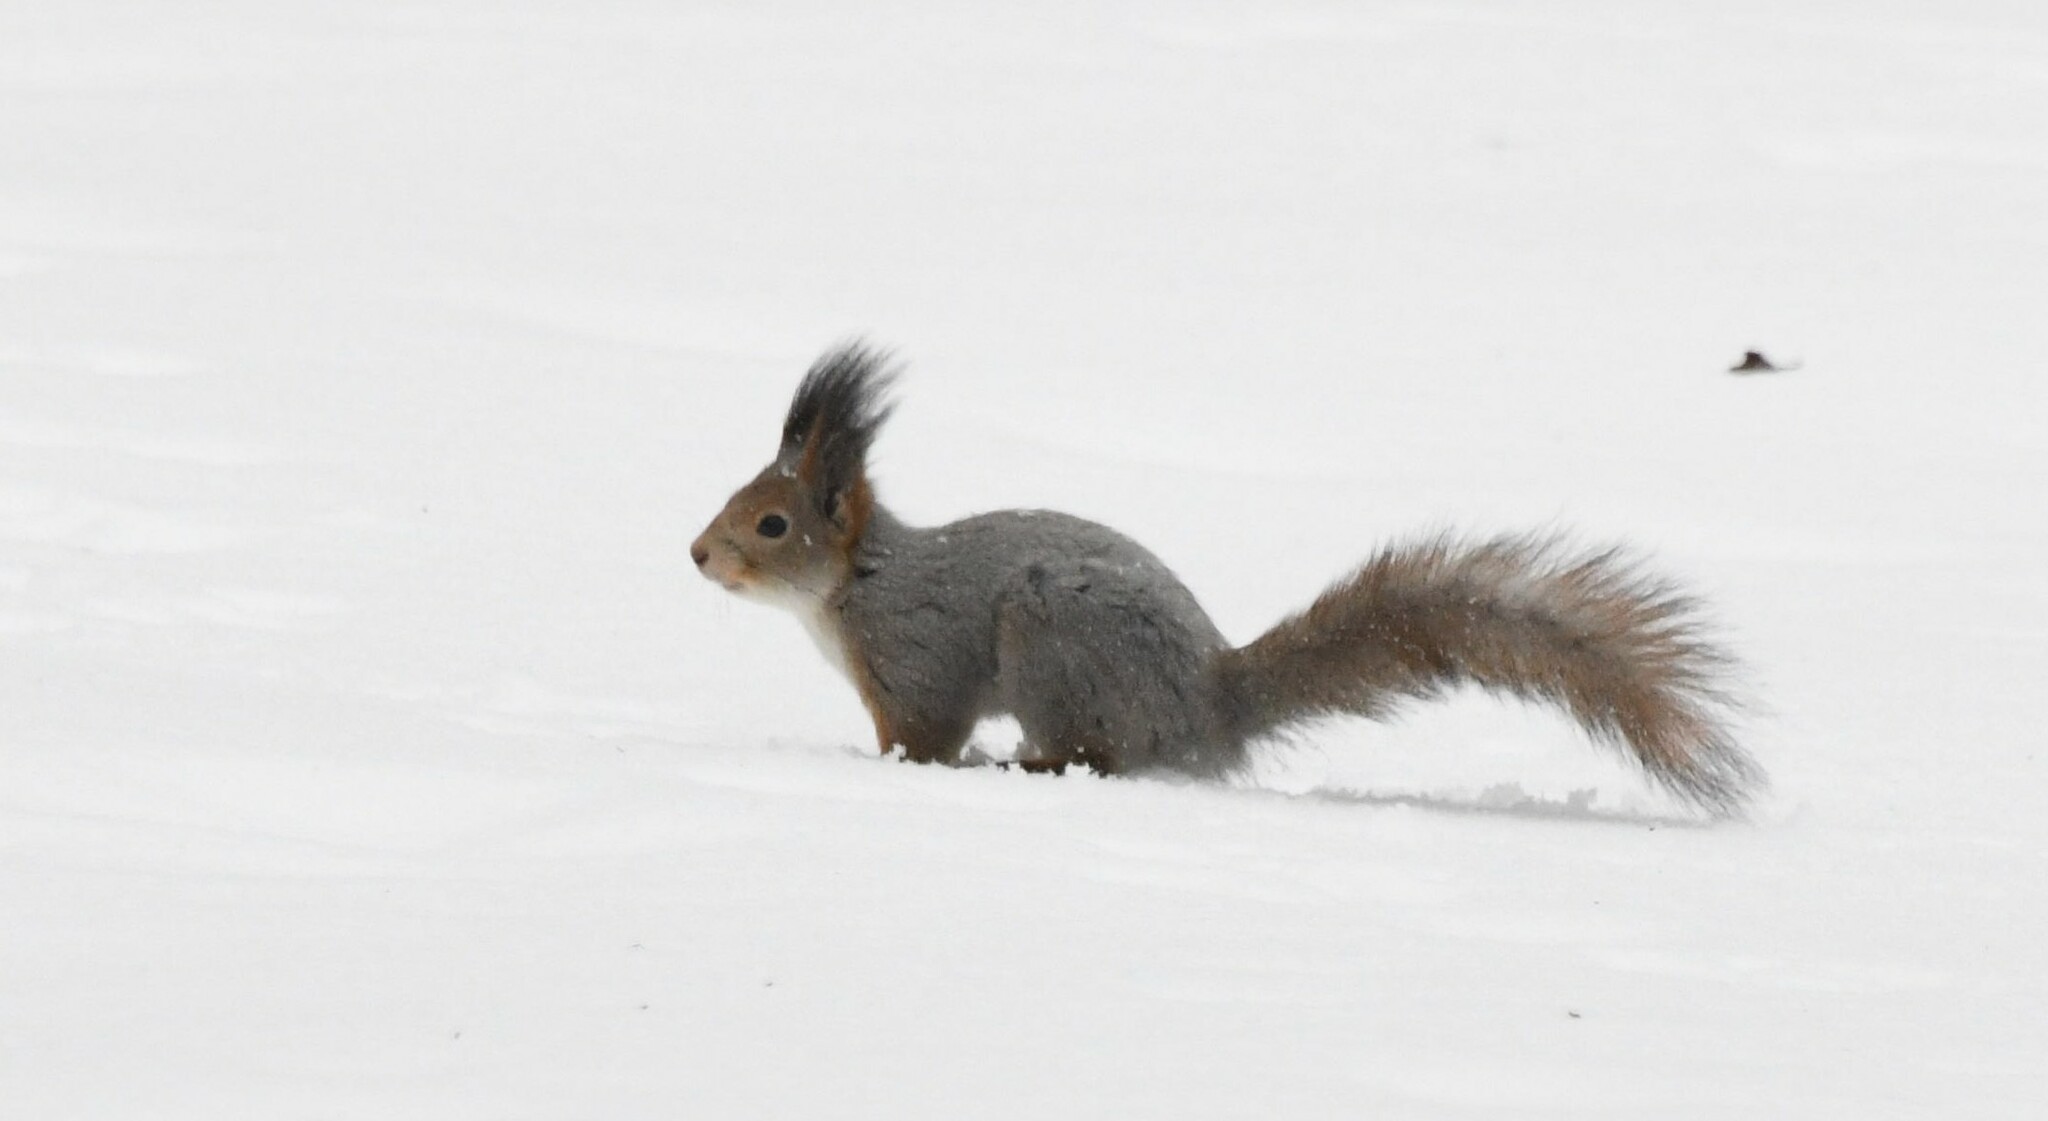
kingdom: Animalia
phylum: Chordata
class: Mammalia
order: Rodentia
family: Sciuridae
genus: Sciurus
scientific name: Sciurus vulgaris
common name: Eurasian red squirrel
